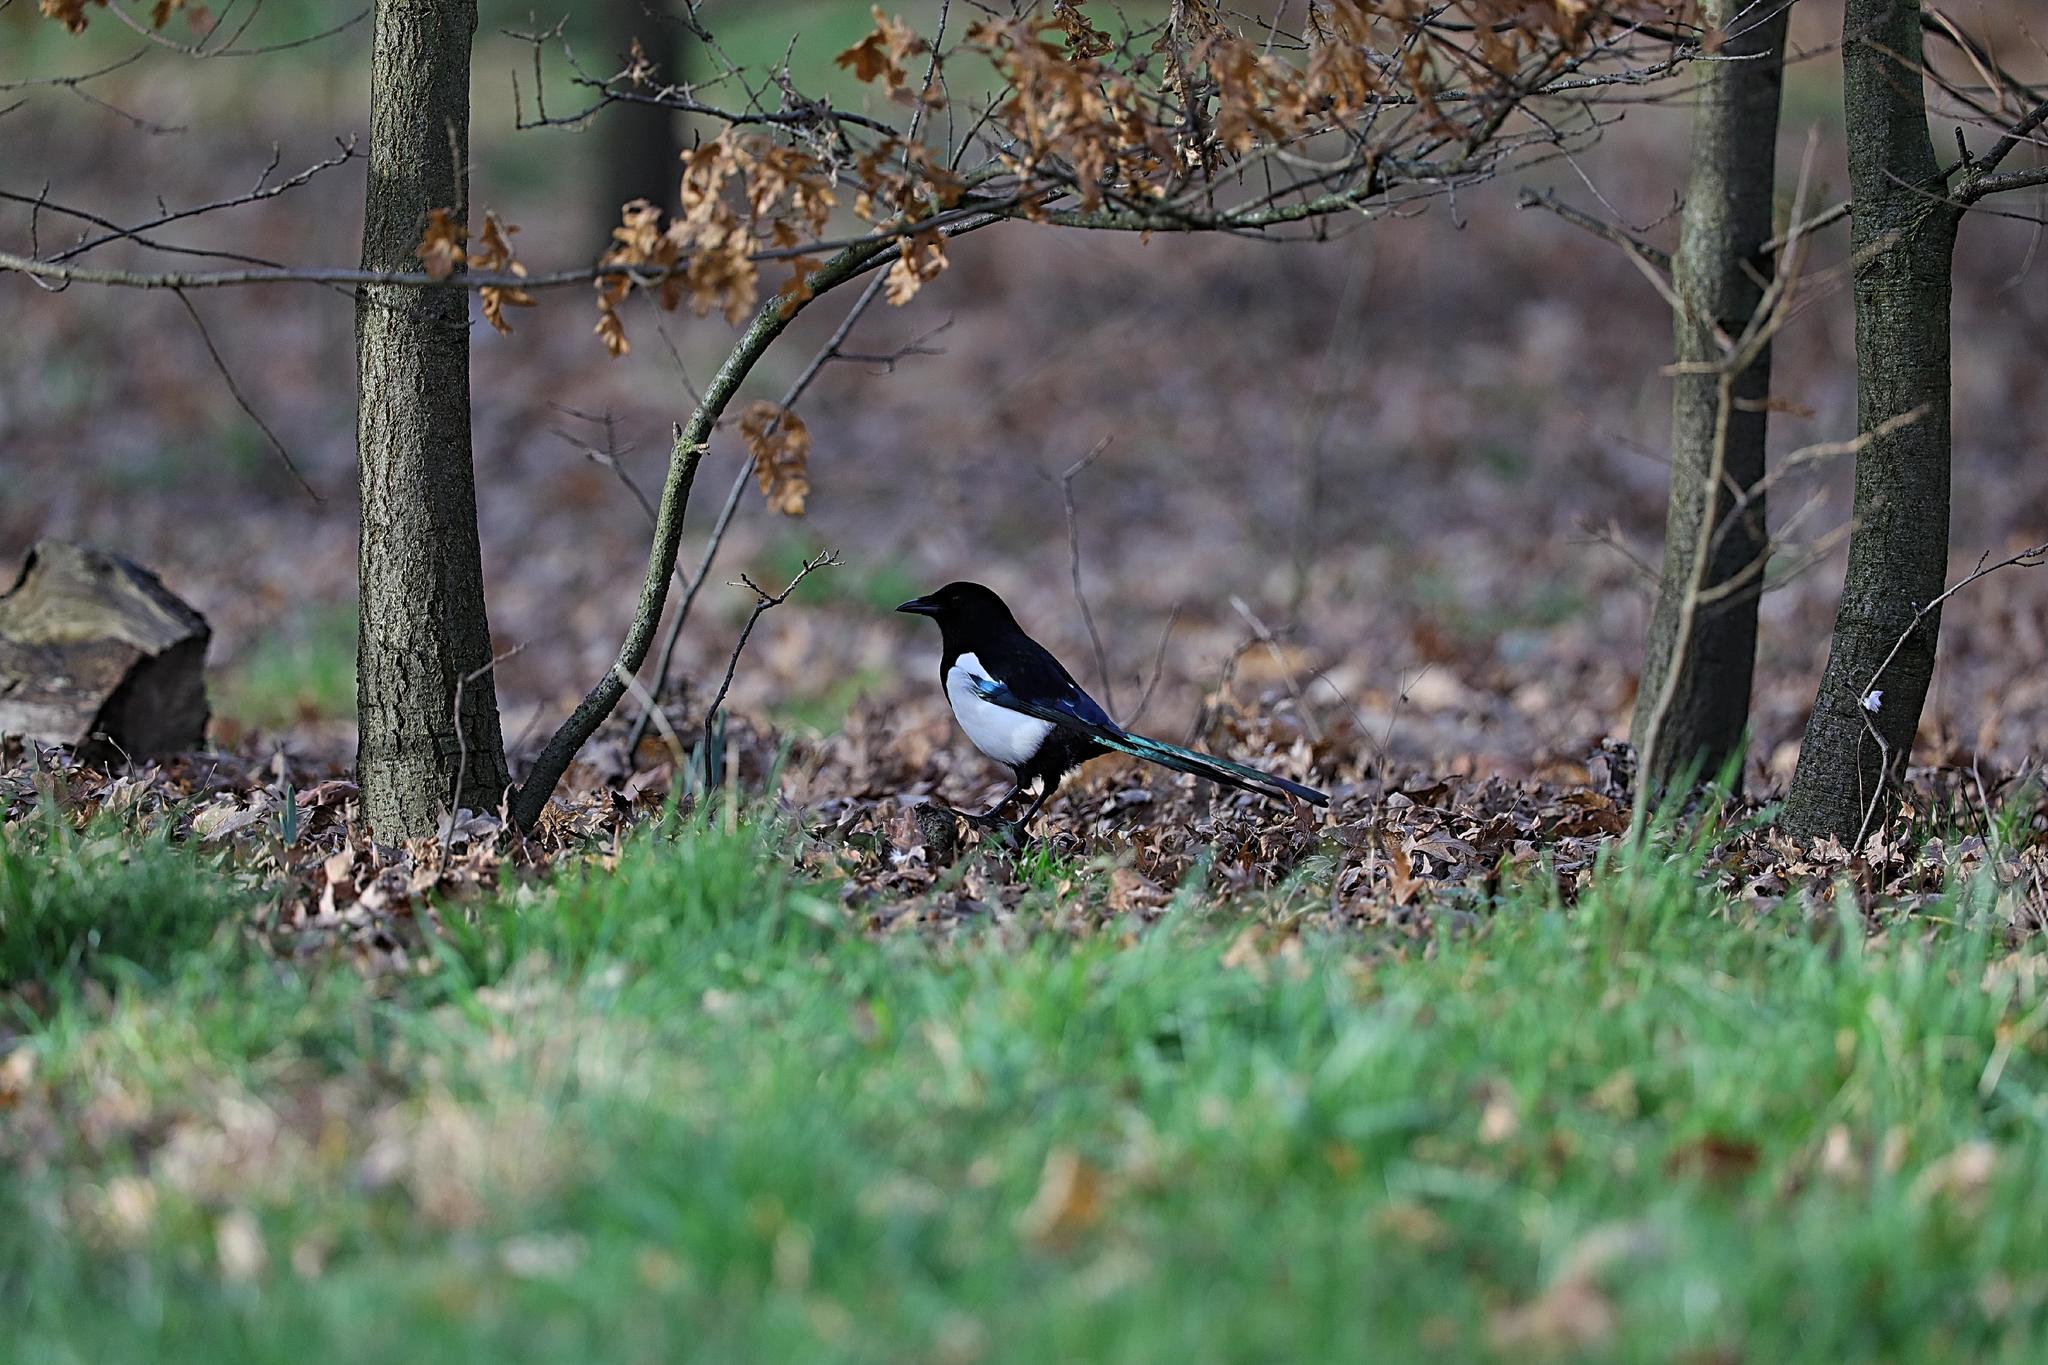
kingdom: Animalia
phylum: Chordata
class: Aves
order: Passeriformes
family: Corvidae
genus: Pica
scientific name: Pica pica
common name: Eurasian magpie
